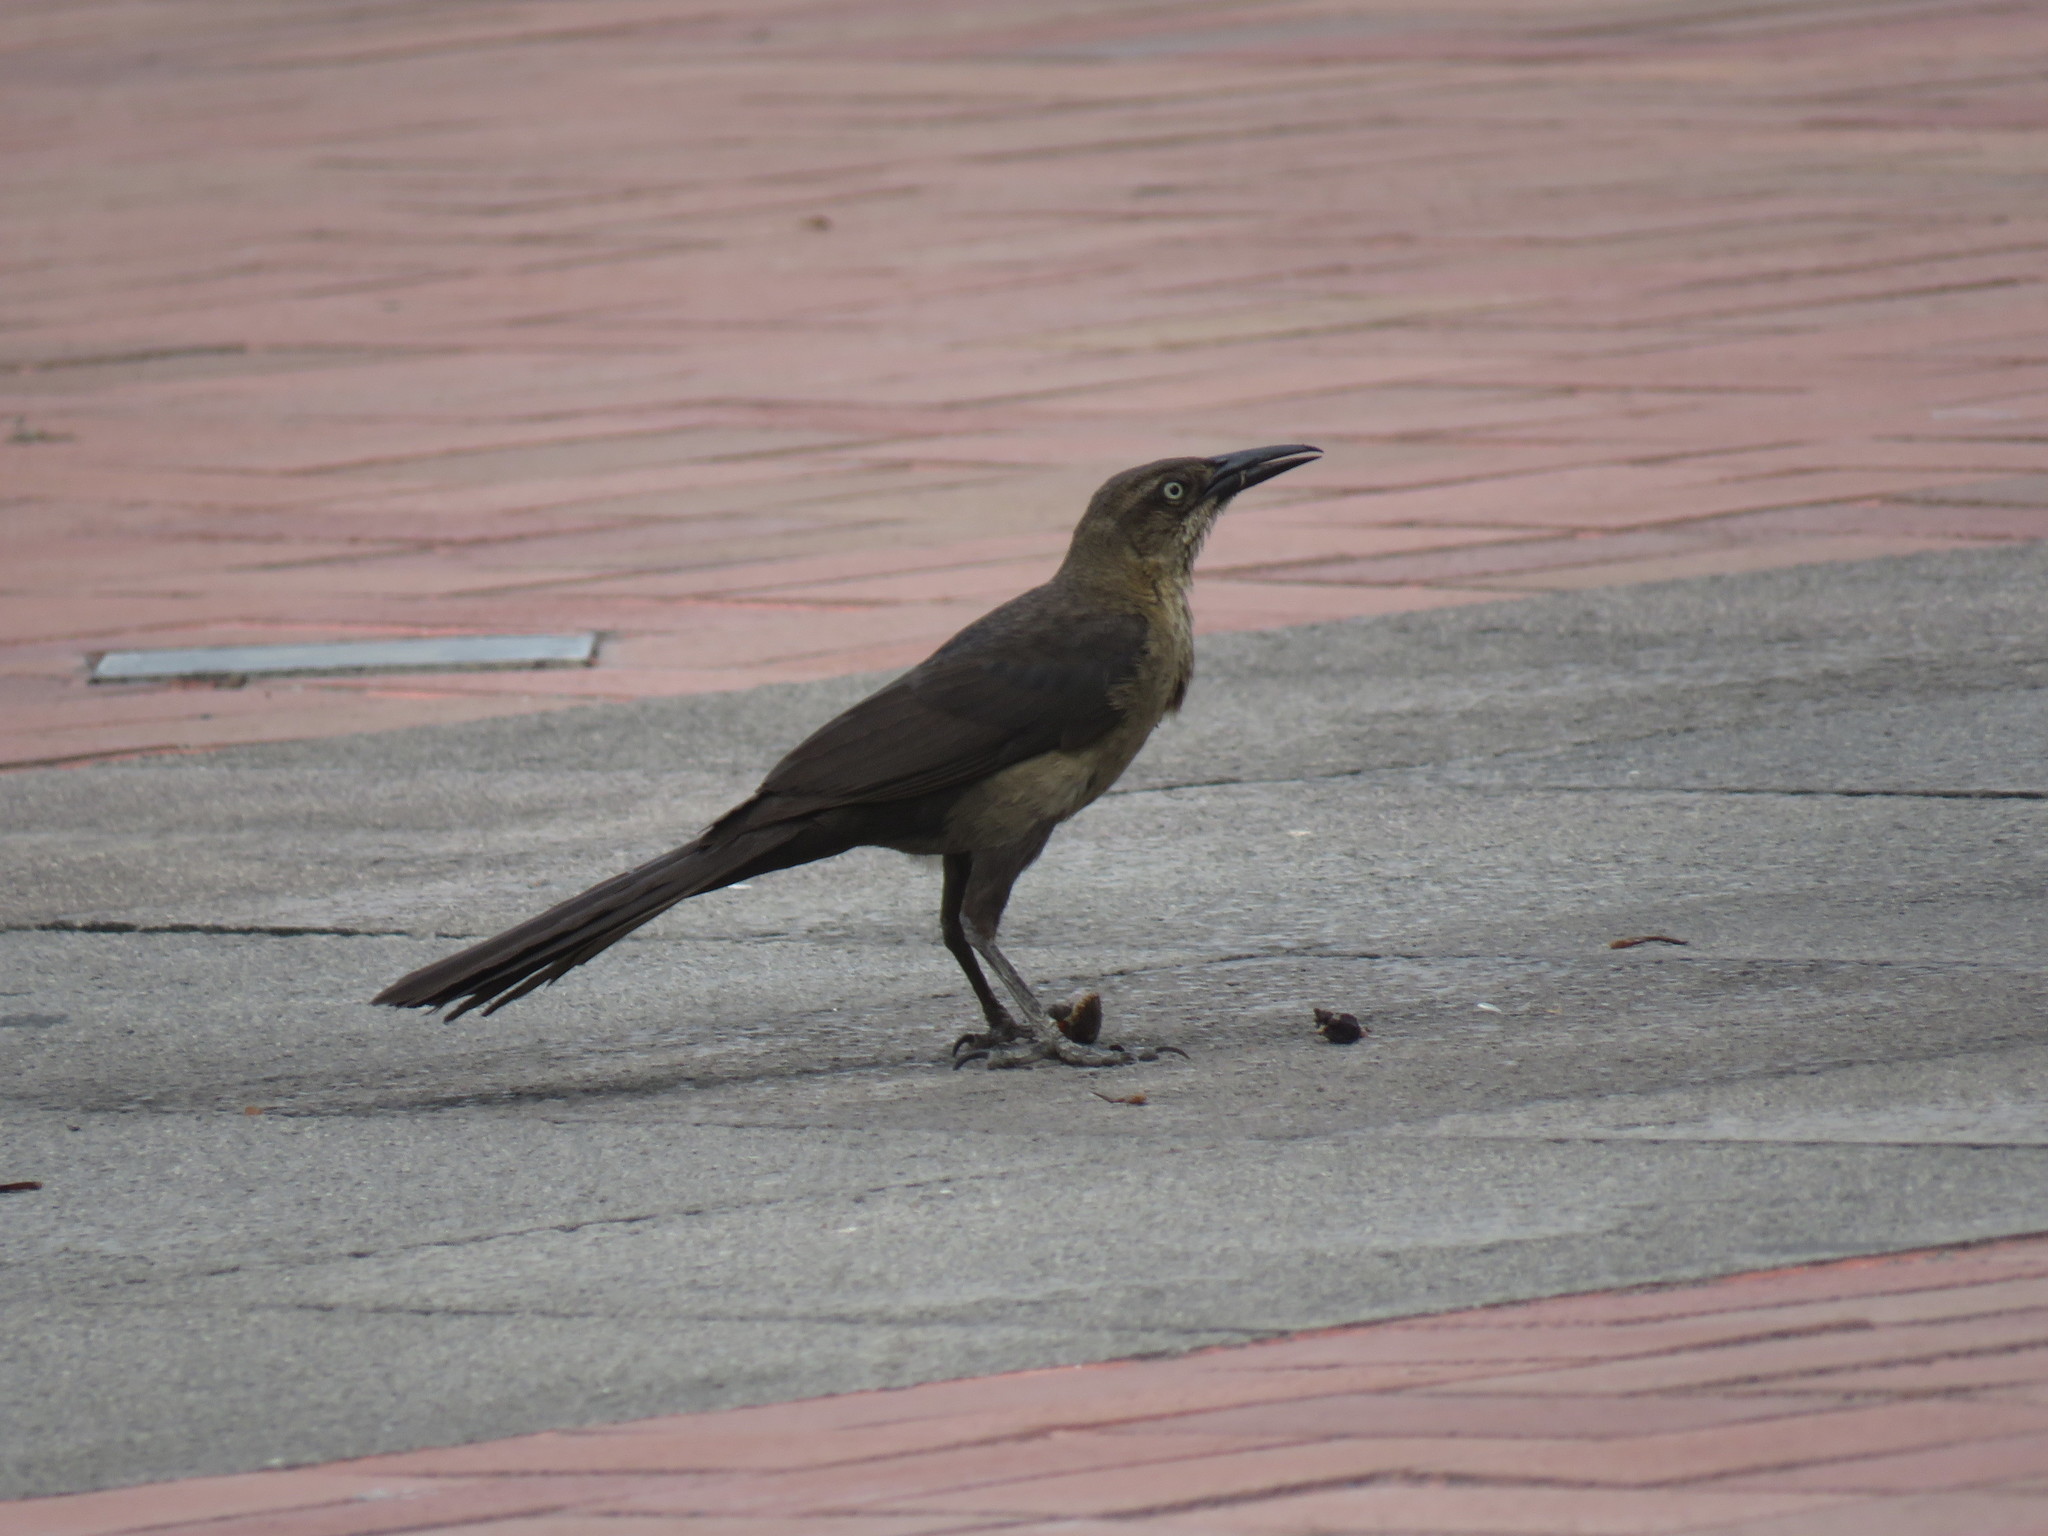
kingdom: Animalia
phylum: Chordata
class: Aves
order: Passeriformes
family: Icteridae
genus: Quiscalus
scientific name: Quiscalus mexicanus
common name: Great-tailed grackle
